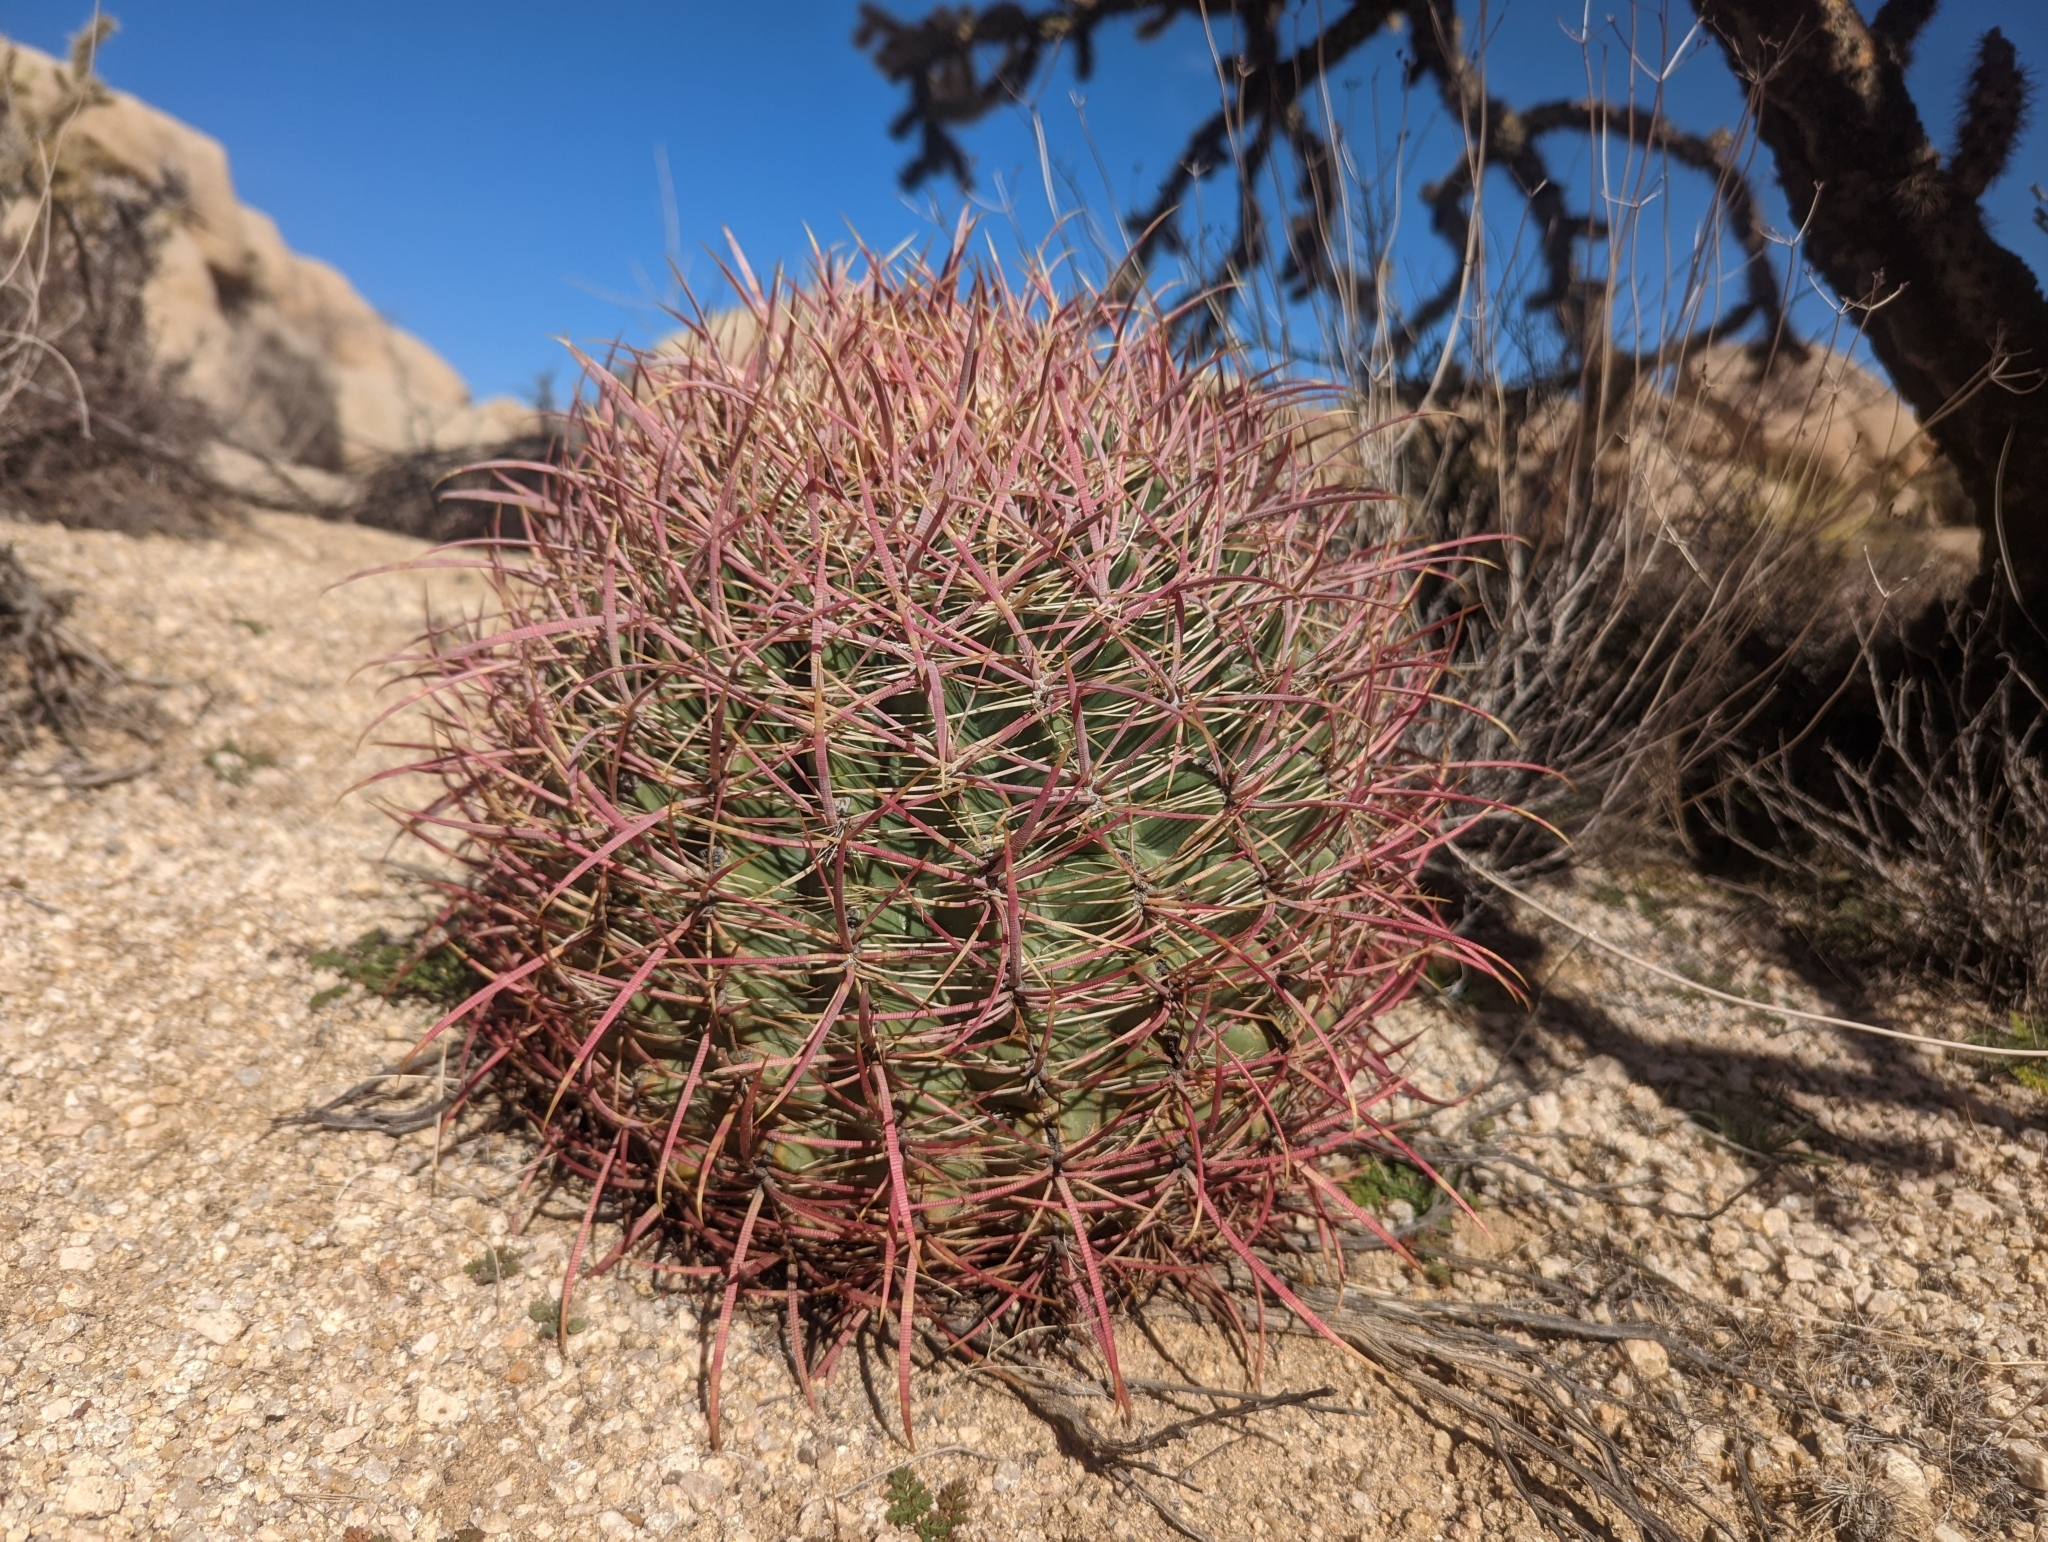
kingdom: Plantae
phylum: Tracheophyta
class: Magnoliopsida
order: Caryophyllales
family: Cactaceae
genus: Ferocactus
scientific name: Ferocactus cylindraceus
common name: California barrel cactus
